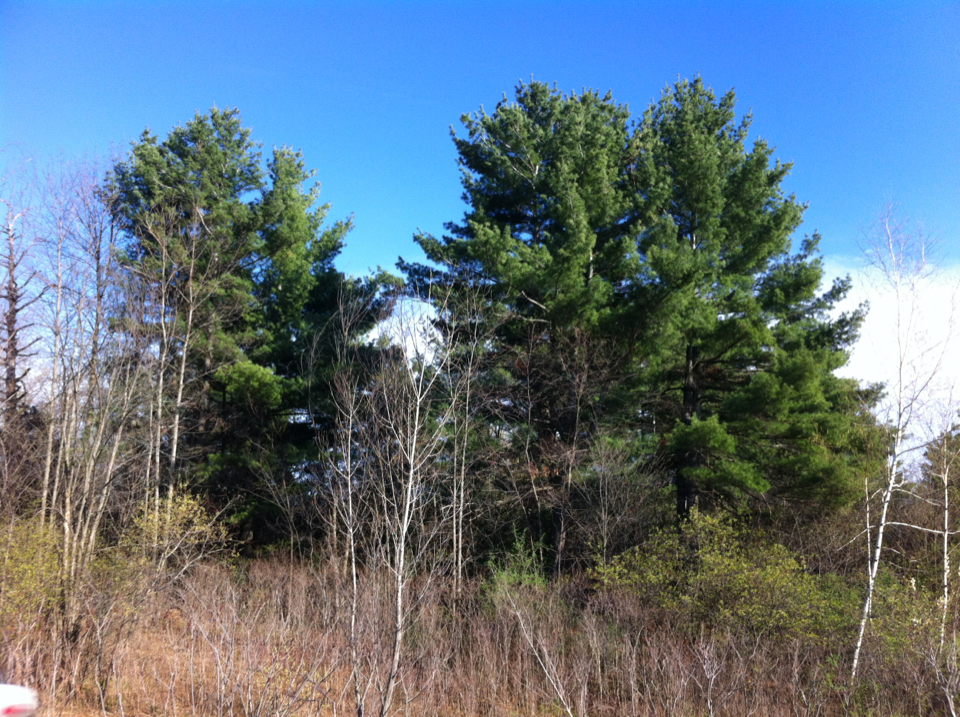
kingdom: Plantae
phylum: Tracheophyta
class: Pinopsida
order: Pinales
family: Pinaceae
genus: Pinus
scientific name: Pinus strobus
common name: Weymouth pine
